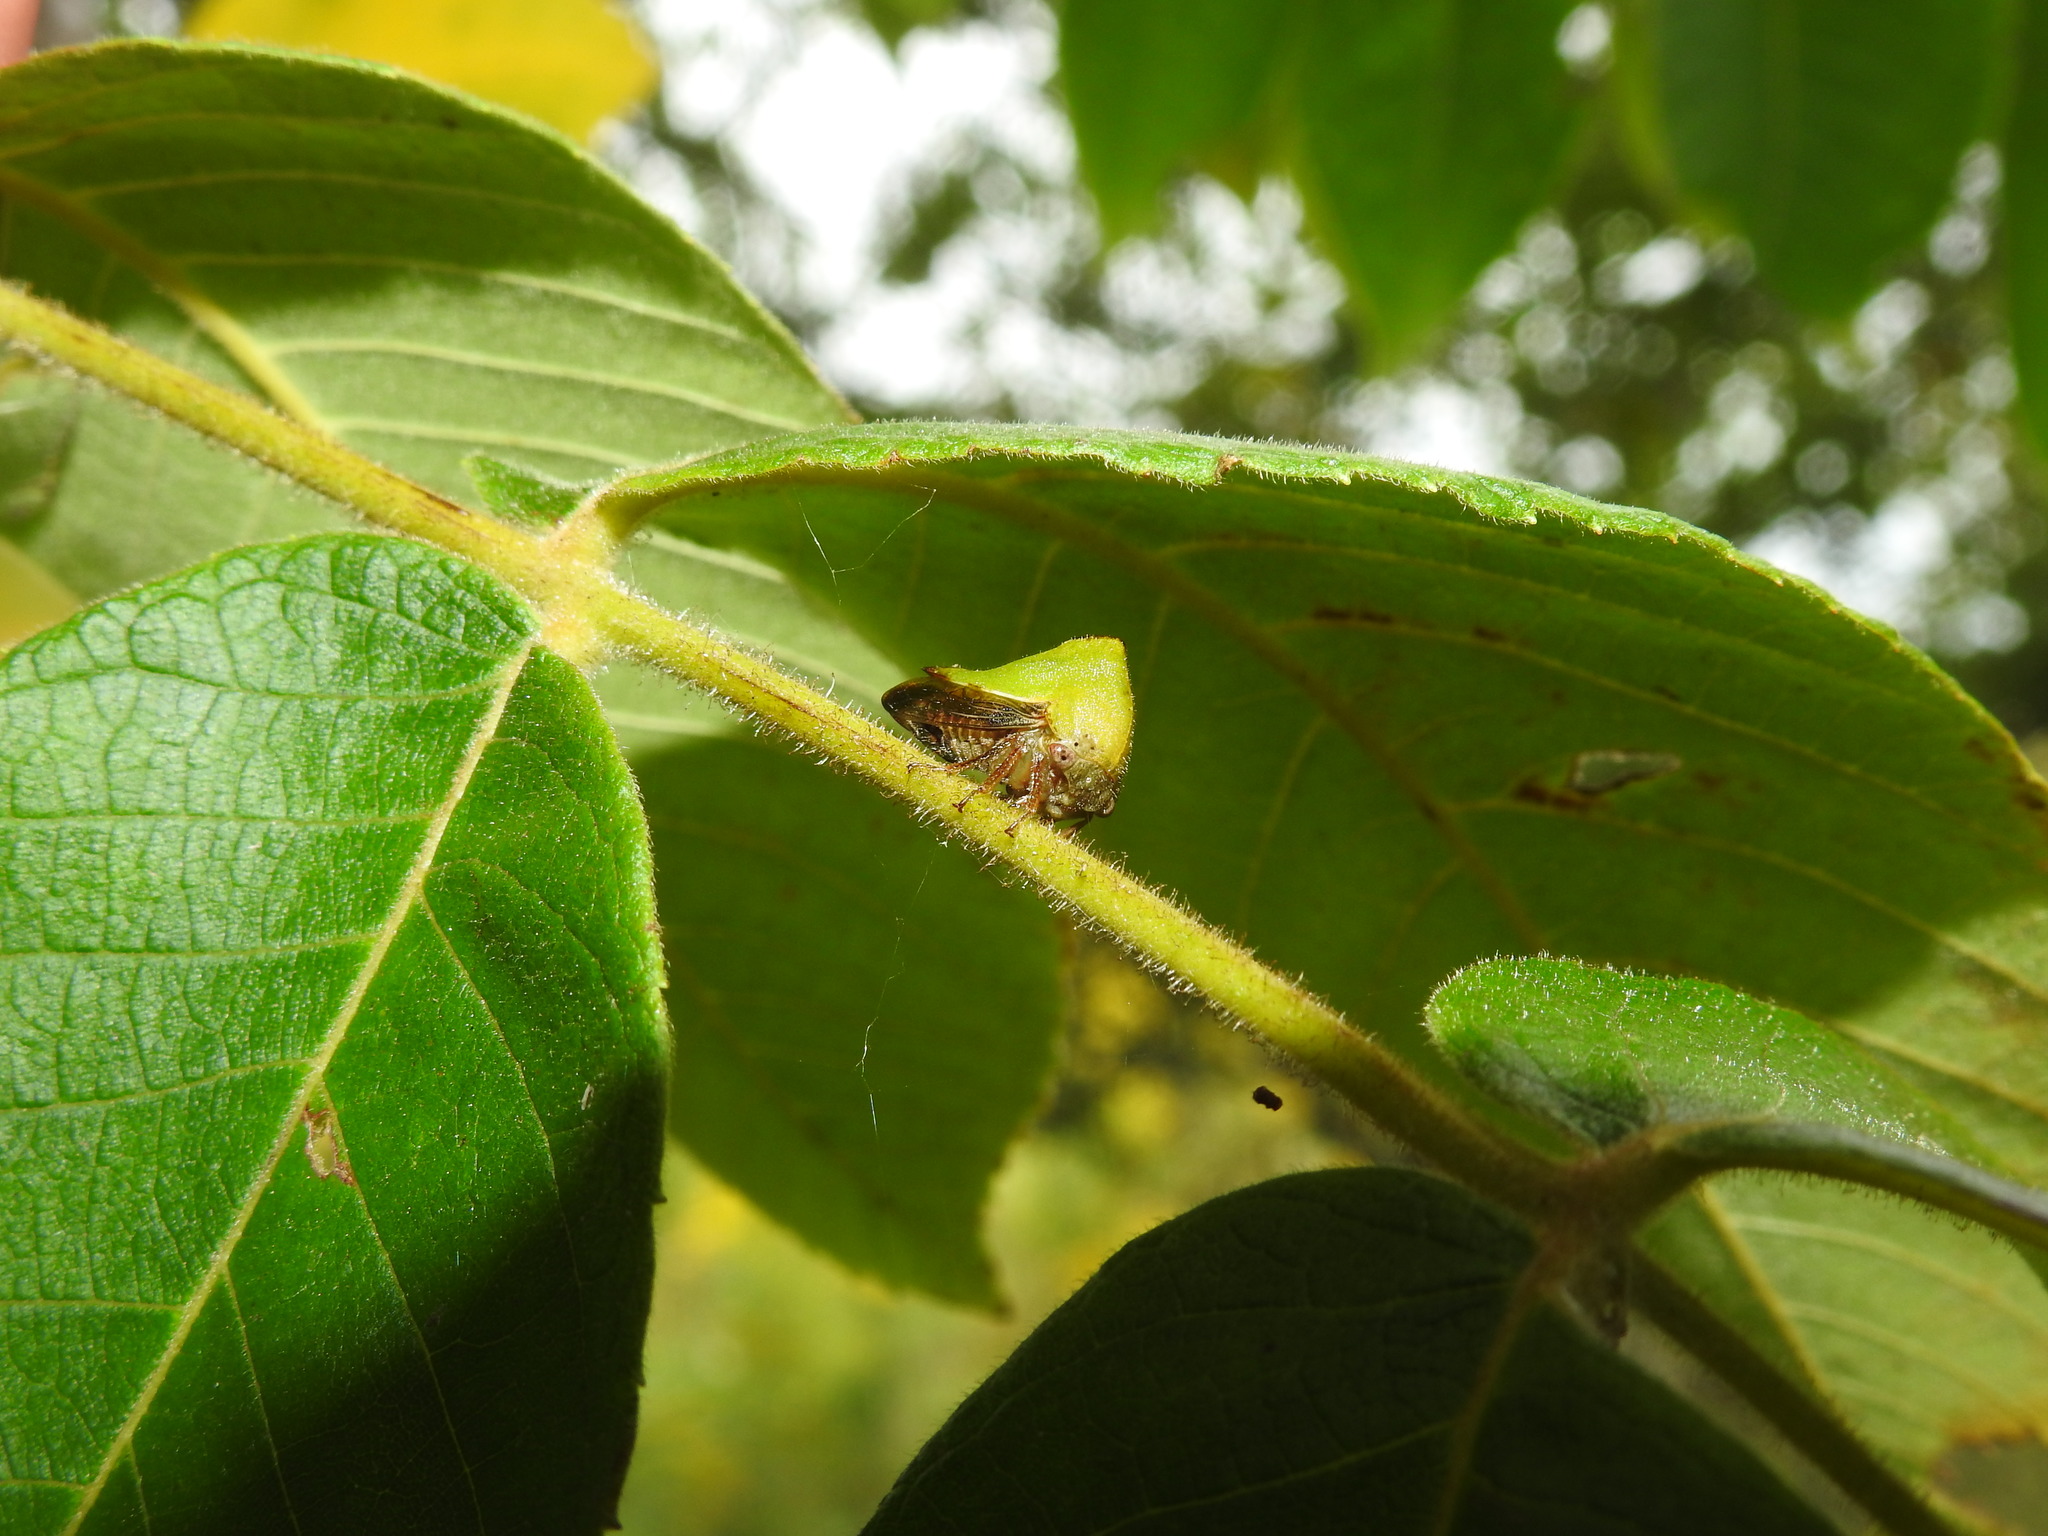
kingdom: Animalia
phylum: Arthropoda
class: Insecta
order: Hemiptera
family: Membracidae
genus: Helonica
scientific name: Helonica excelsa
